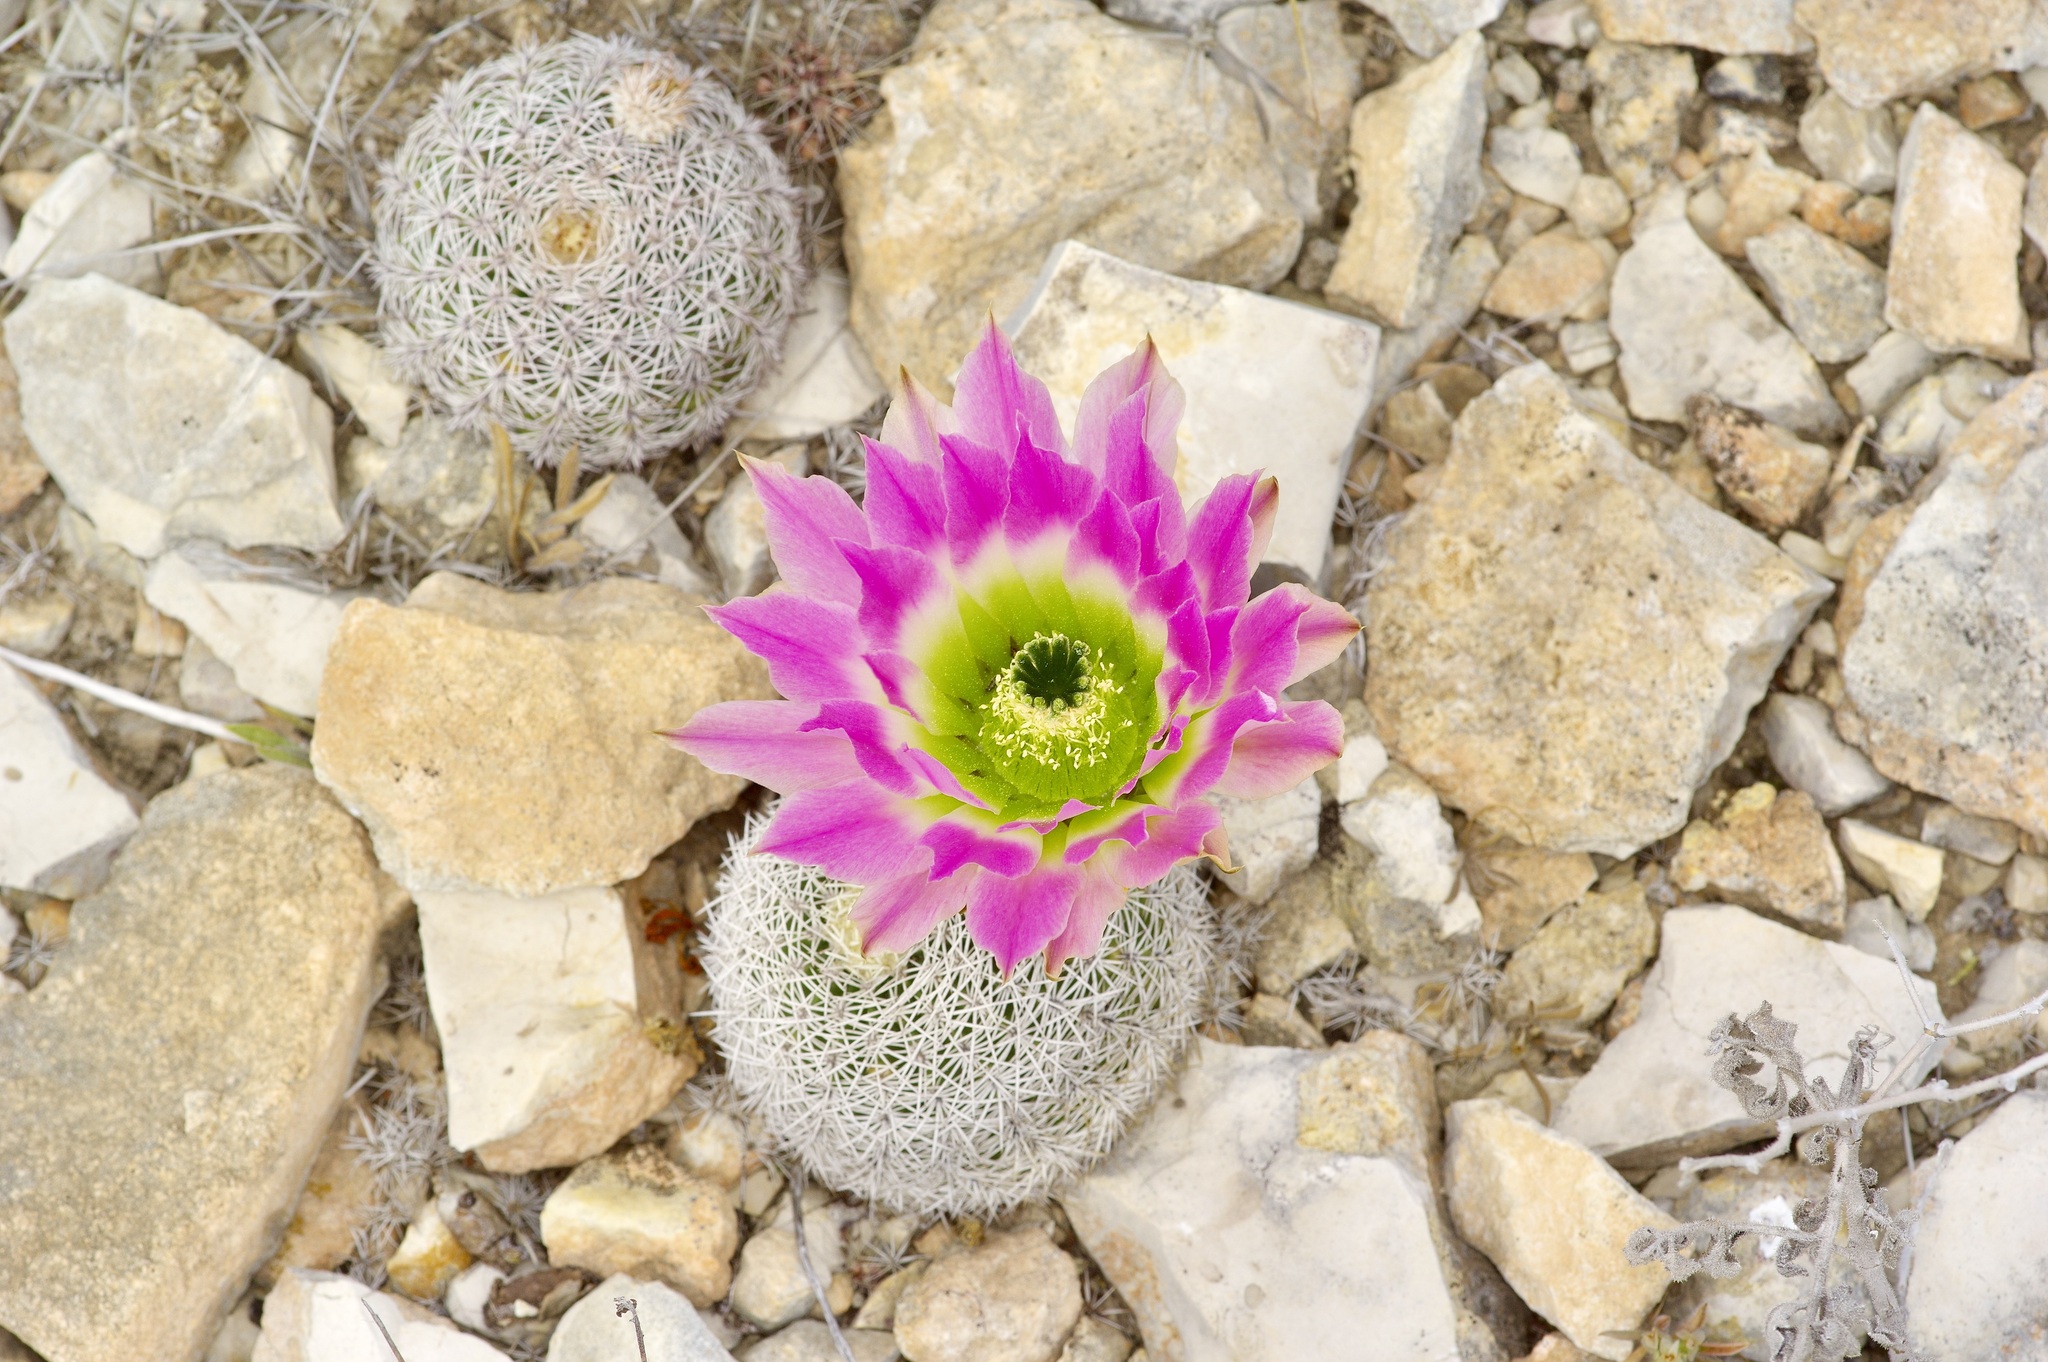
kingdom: Plantae
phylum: Tracheophyta
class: Magnoliopsida
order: Caryophyllales
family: Cactaceae
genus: Echinocereus
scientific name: Echinocereus pectinatus
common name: Rainbow cactus
